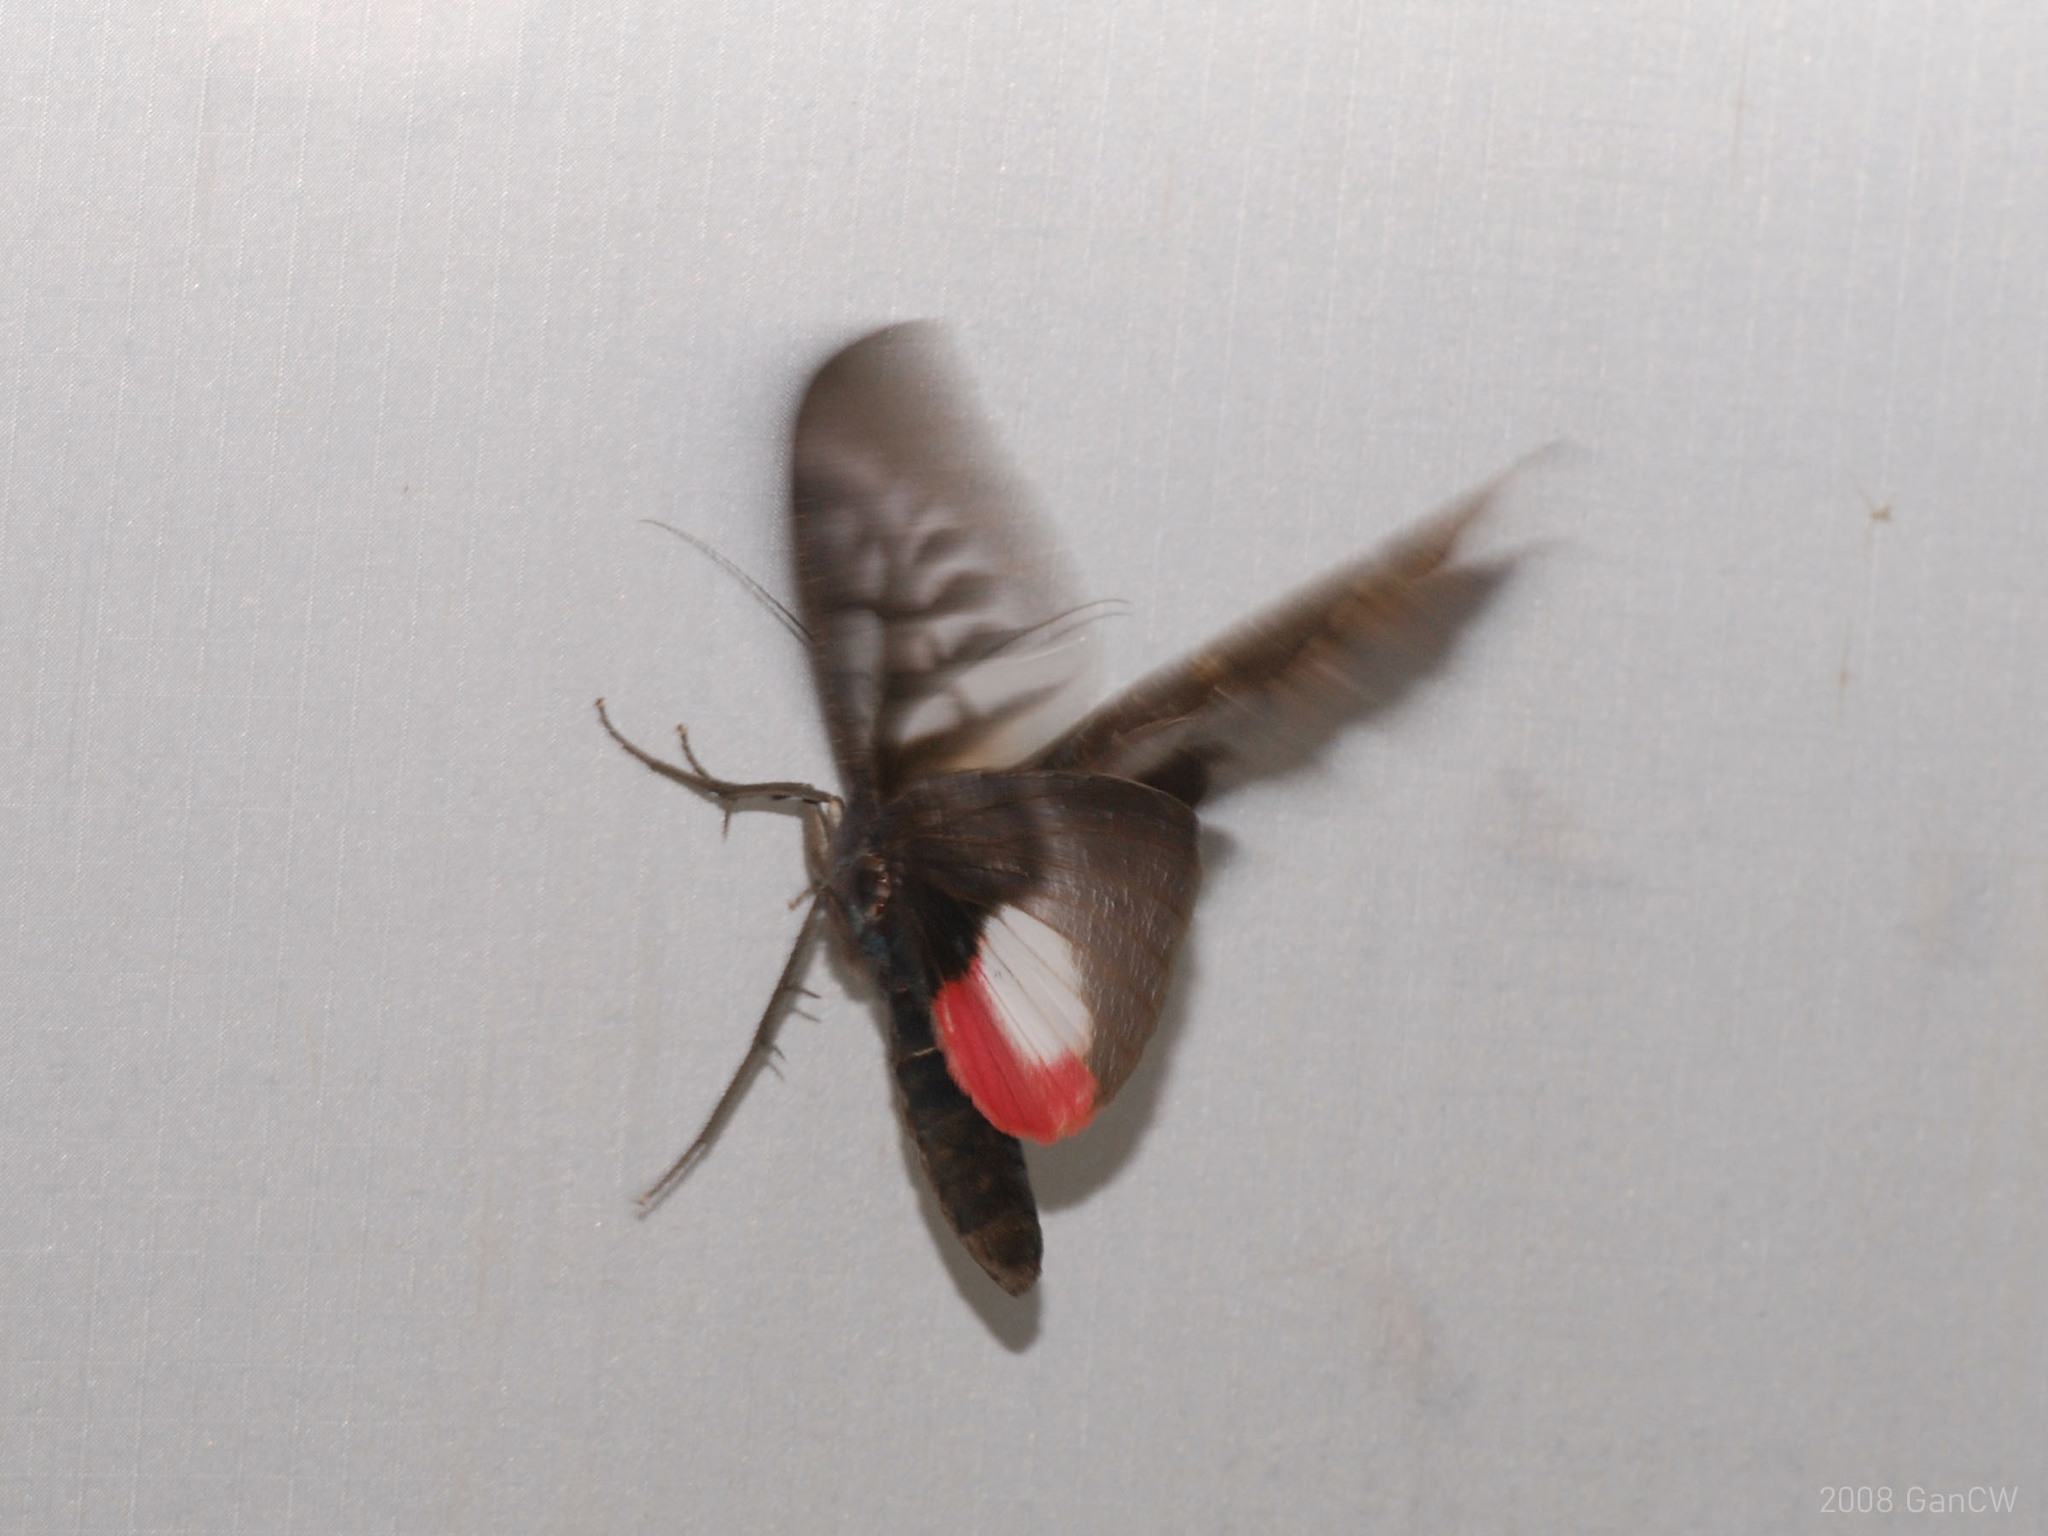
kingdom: Animalia
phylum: Arthropoda
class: Insecta
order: Lepidoptera
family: Erebidae
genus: Phyllodes
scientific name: Phyllodes verhuelli
